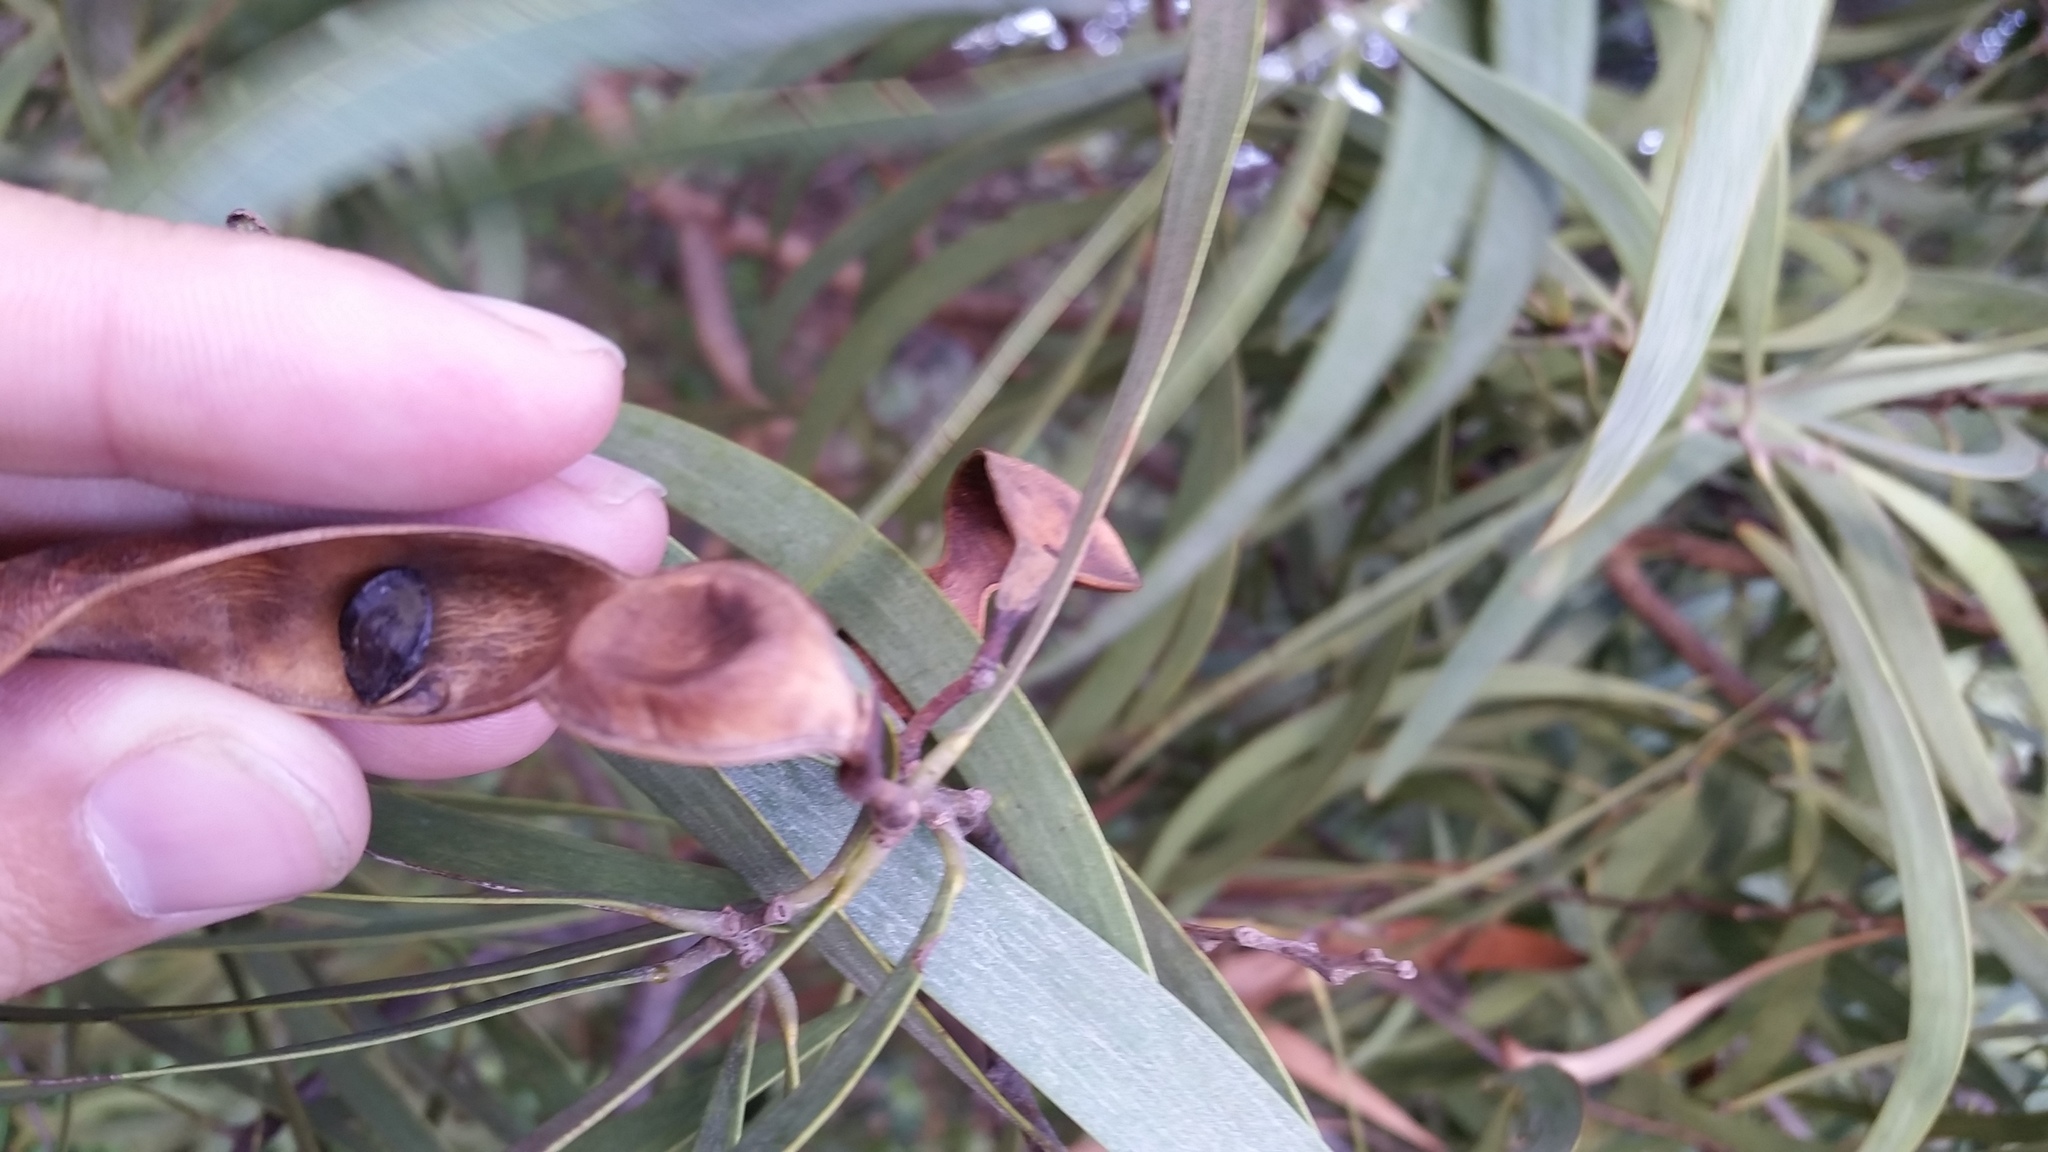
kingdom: Plantae
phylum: Tracheophyta
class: Magnoliopsida
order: Fabales
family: Fabaceae
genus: Acacia
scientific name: Acacia koa
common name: Gray koa
